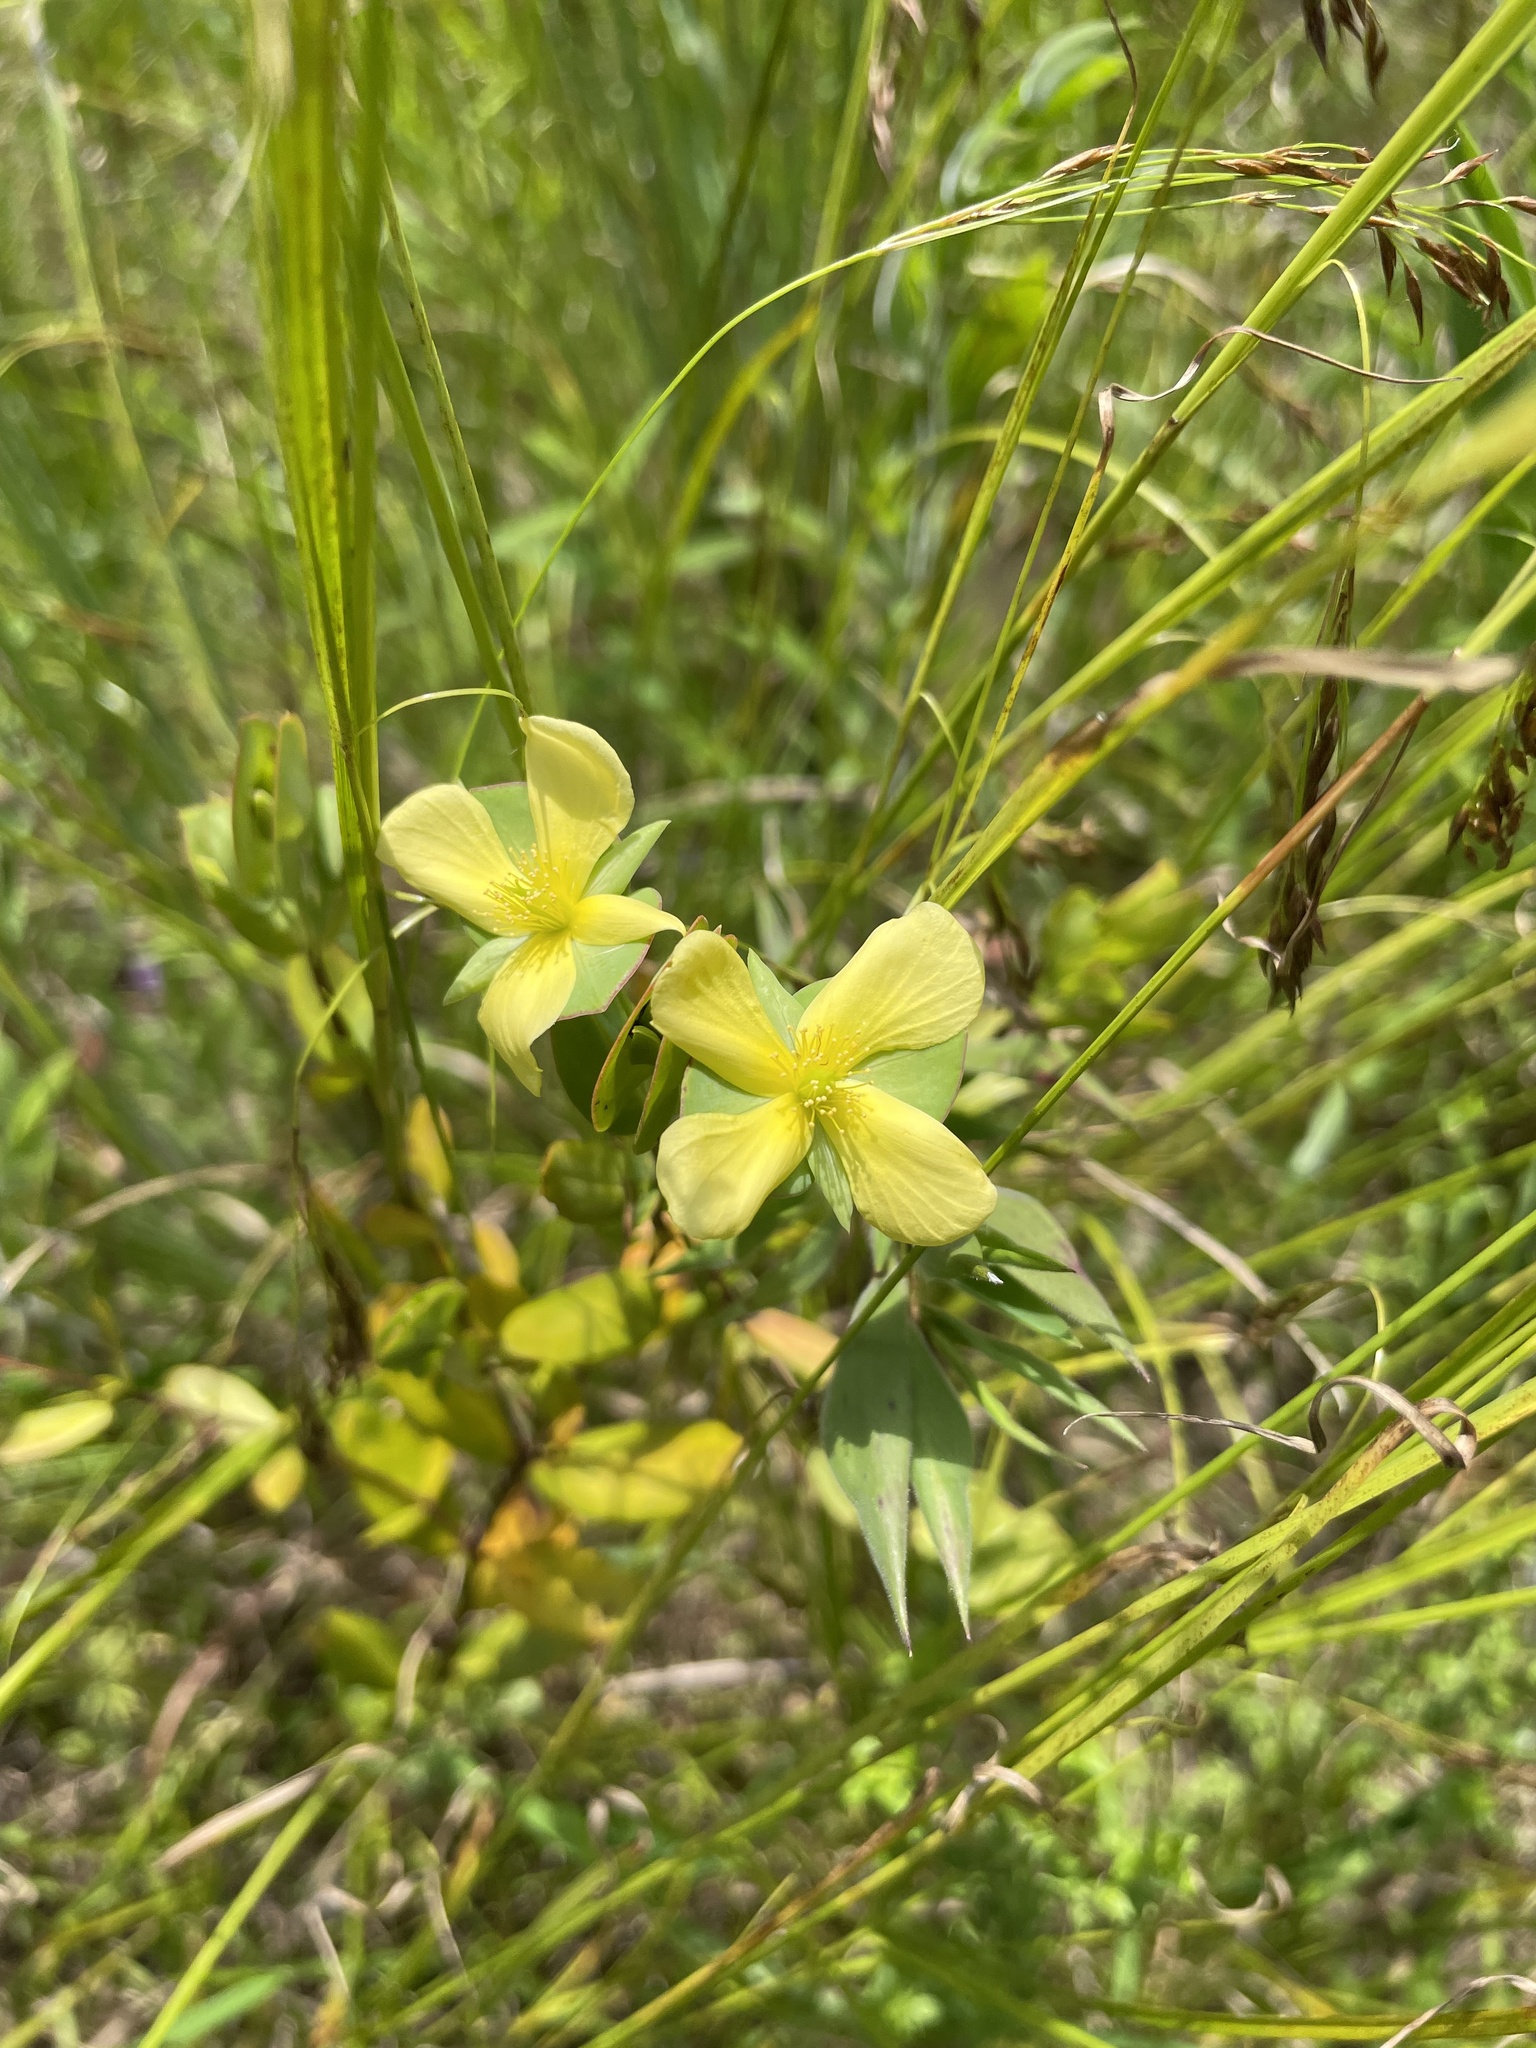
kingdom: Plantae
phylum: Tracheophyta
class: Magnoliopsida
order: Malpighiales
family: Hypericaceae
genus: Hypericum
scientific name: Hypericum crux-andreae
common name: St.-peter's-wort
